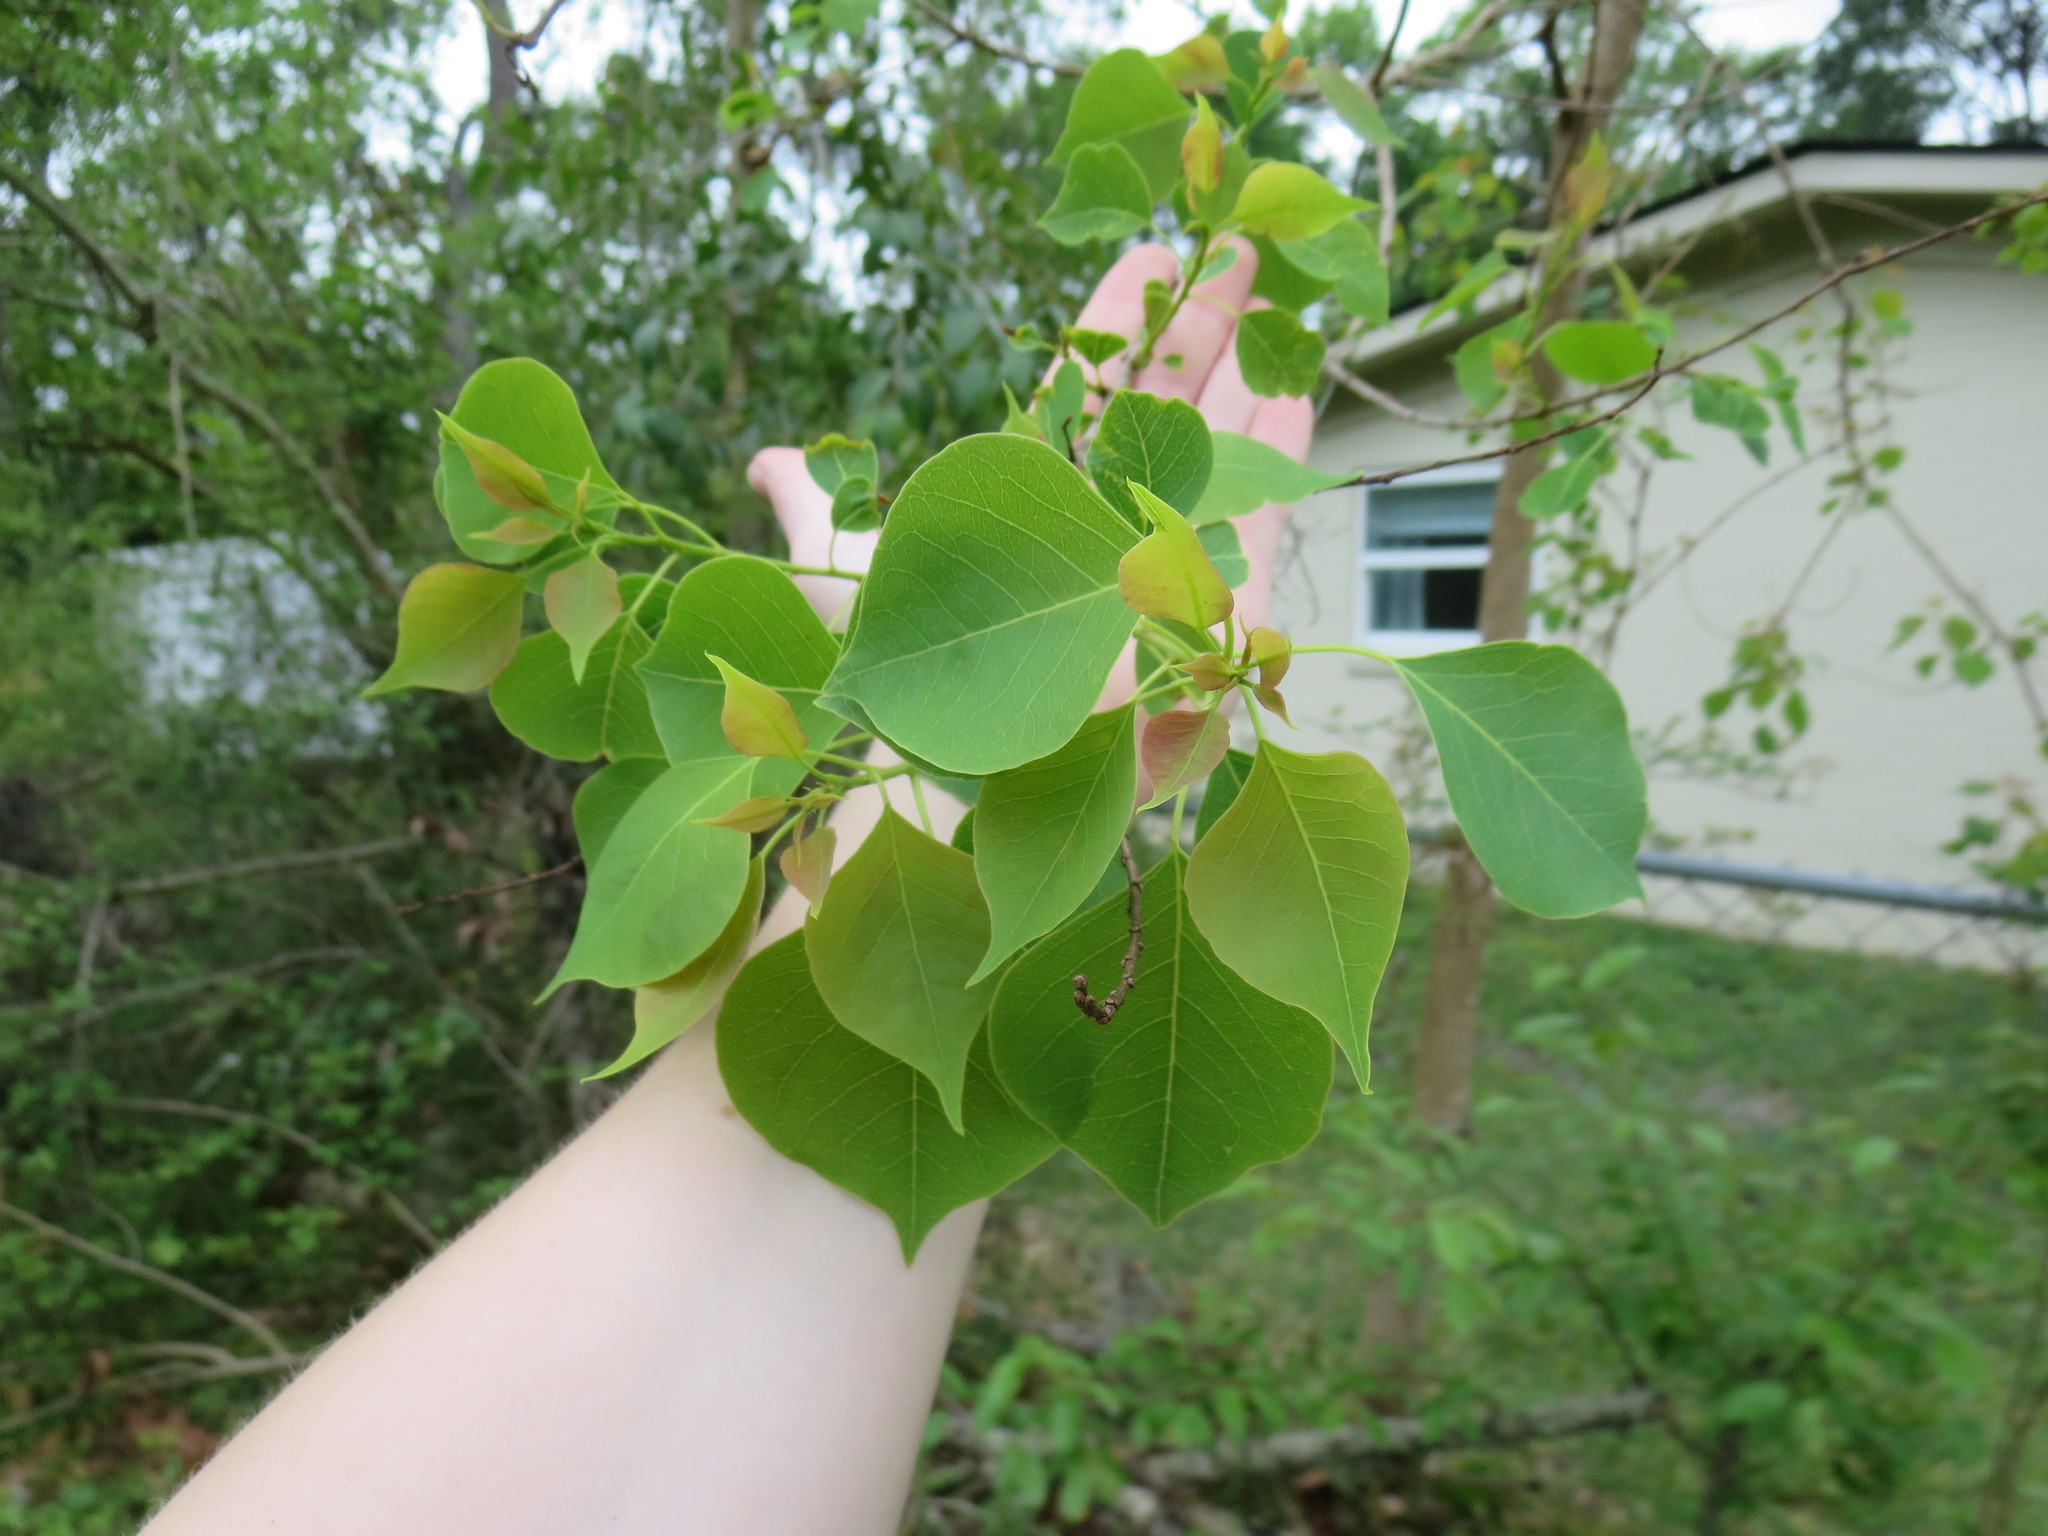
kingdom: Plantae
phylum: Tracheophyta
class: Magnoliopsida
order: Malpighiales
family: Euphorbiaceae
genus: Triadica
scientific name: Triadica sebifera
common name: Chinese tallow
